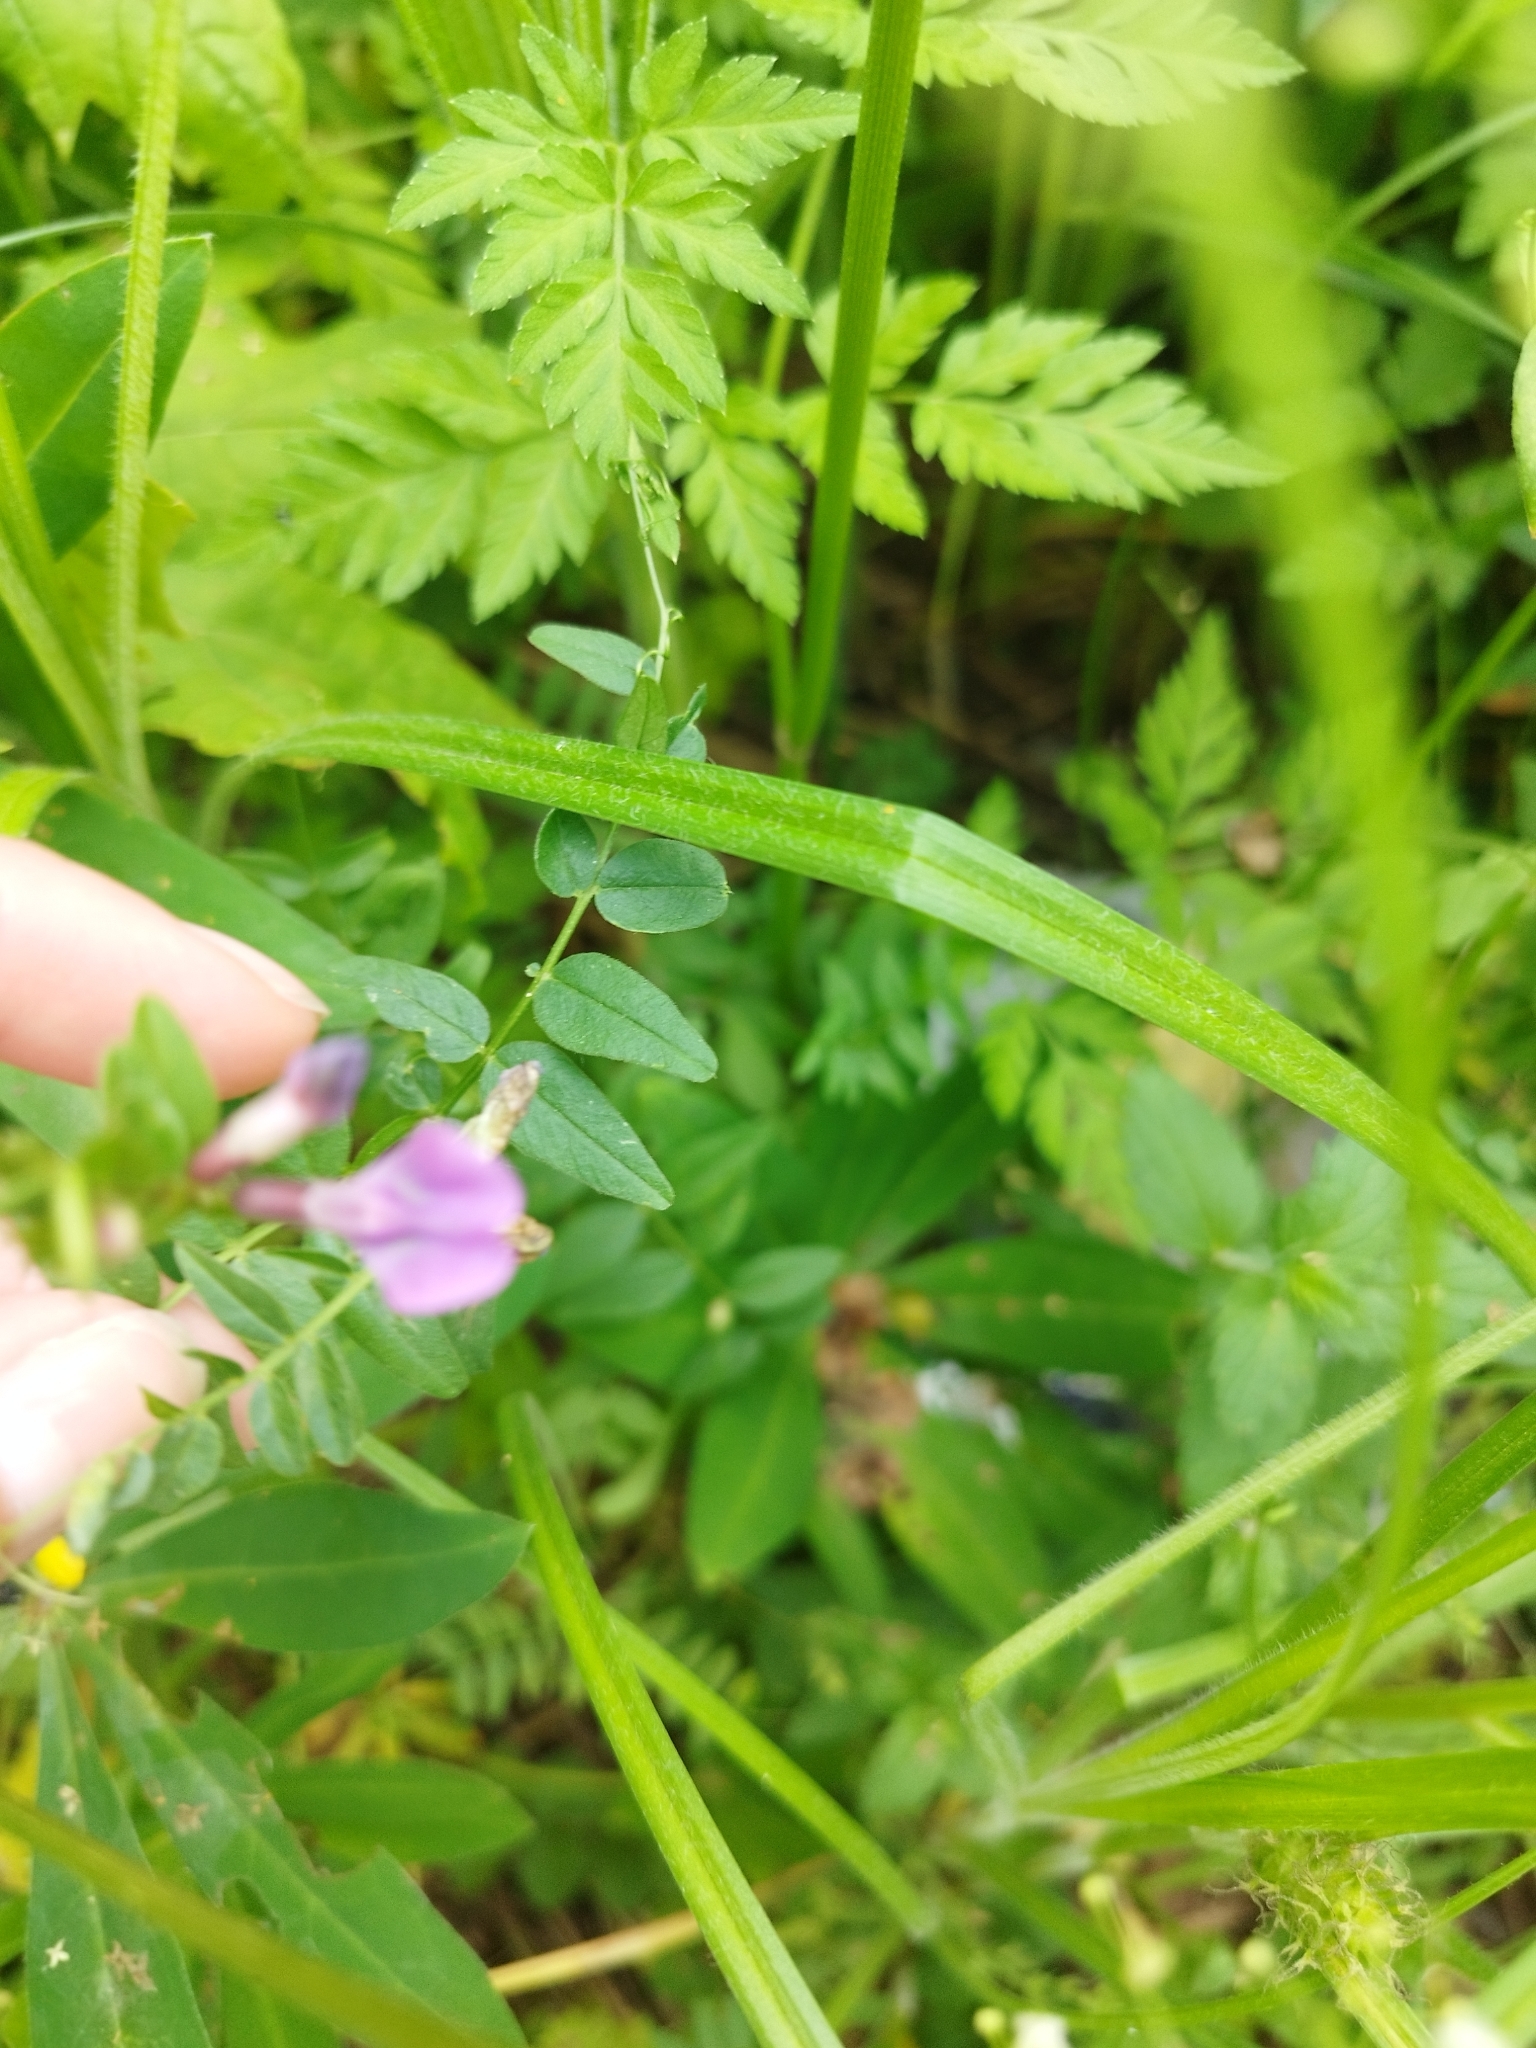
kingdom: Plantae
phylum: Tracheophyta
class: Magnoliopsida
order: Fabales
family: Fabaceae
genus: Vicia
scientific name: Vicia sepium
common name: Bush vetch
